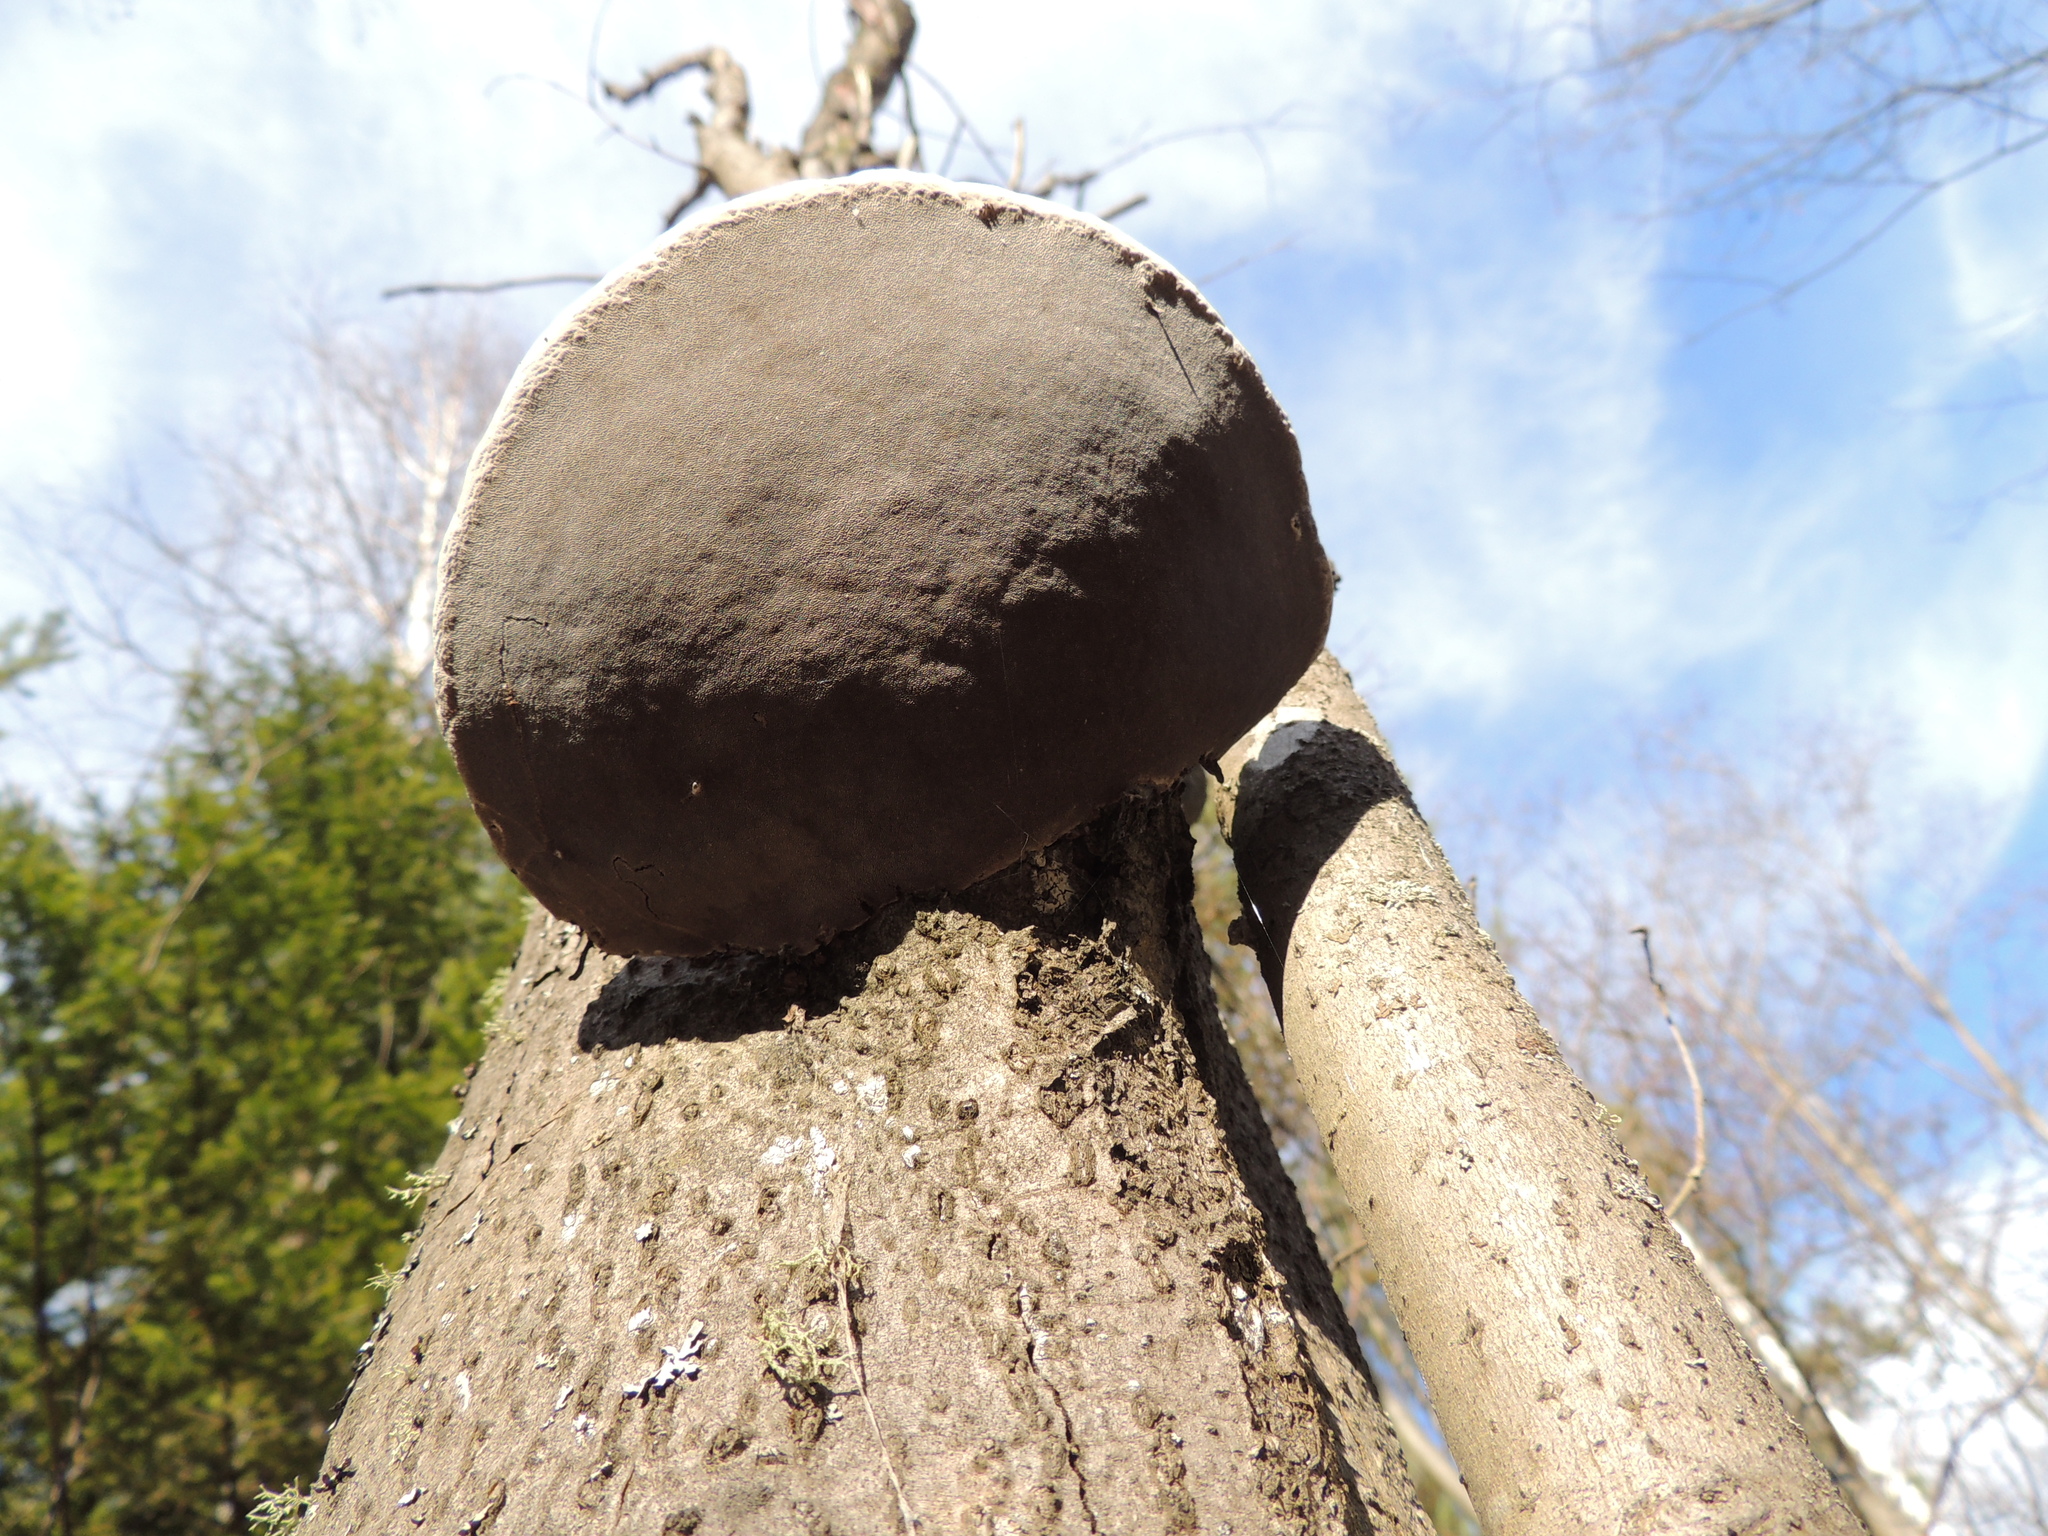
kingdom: Fungi
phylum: Basidiomycota
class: Agaricomycetes
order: Hymenochaetales
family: Hymenochaetaceae
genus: Phellinus
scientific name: Phellinus igniarius
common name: Willow bracket
